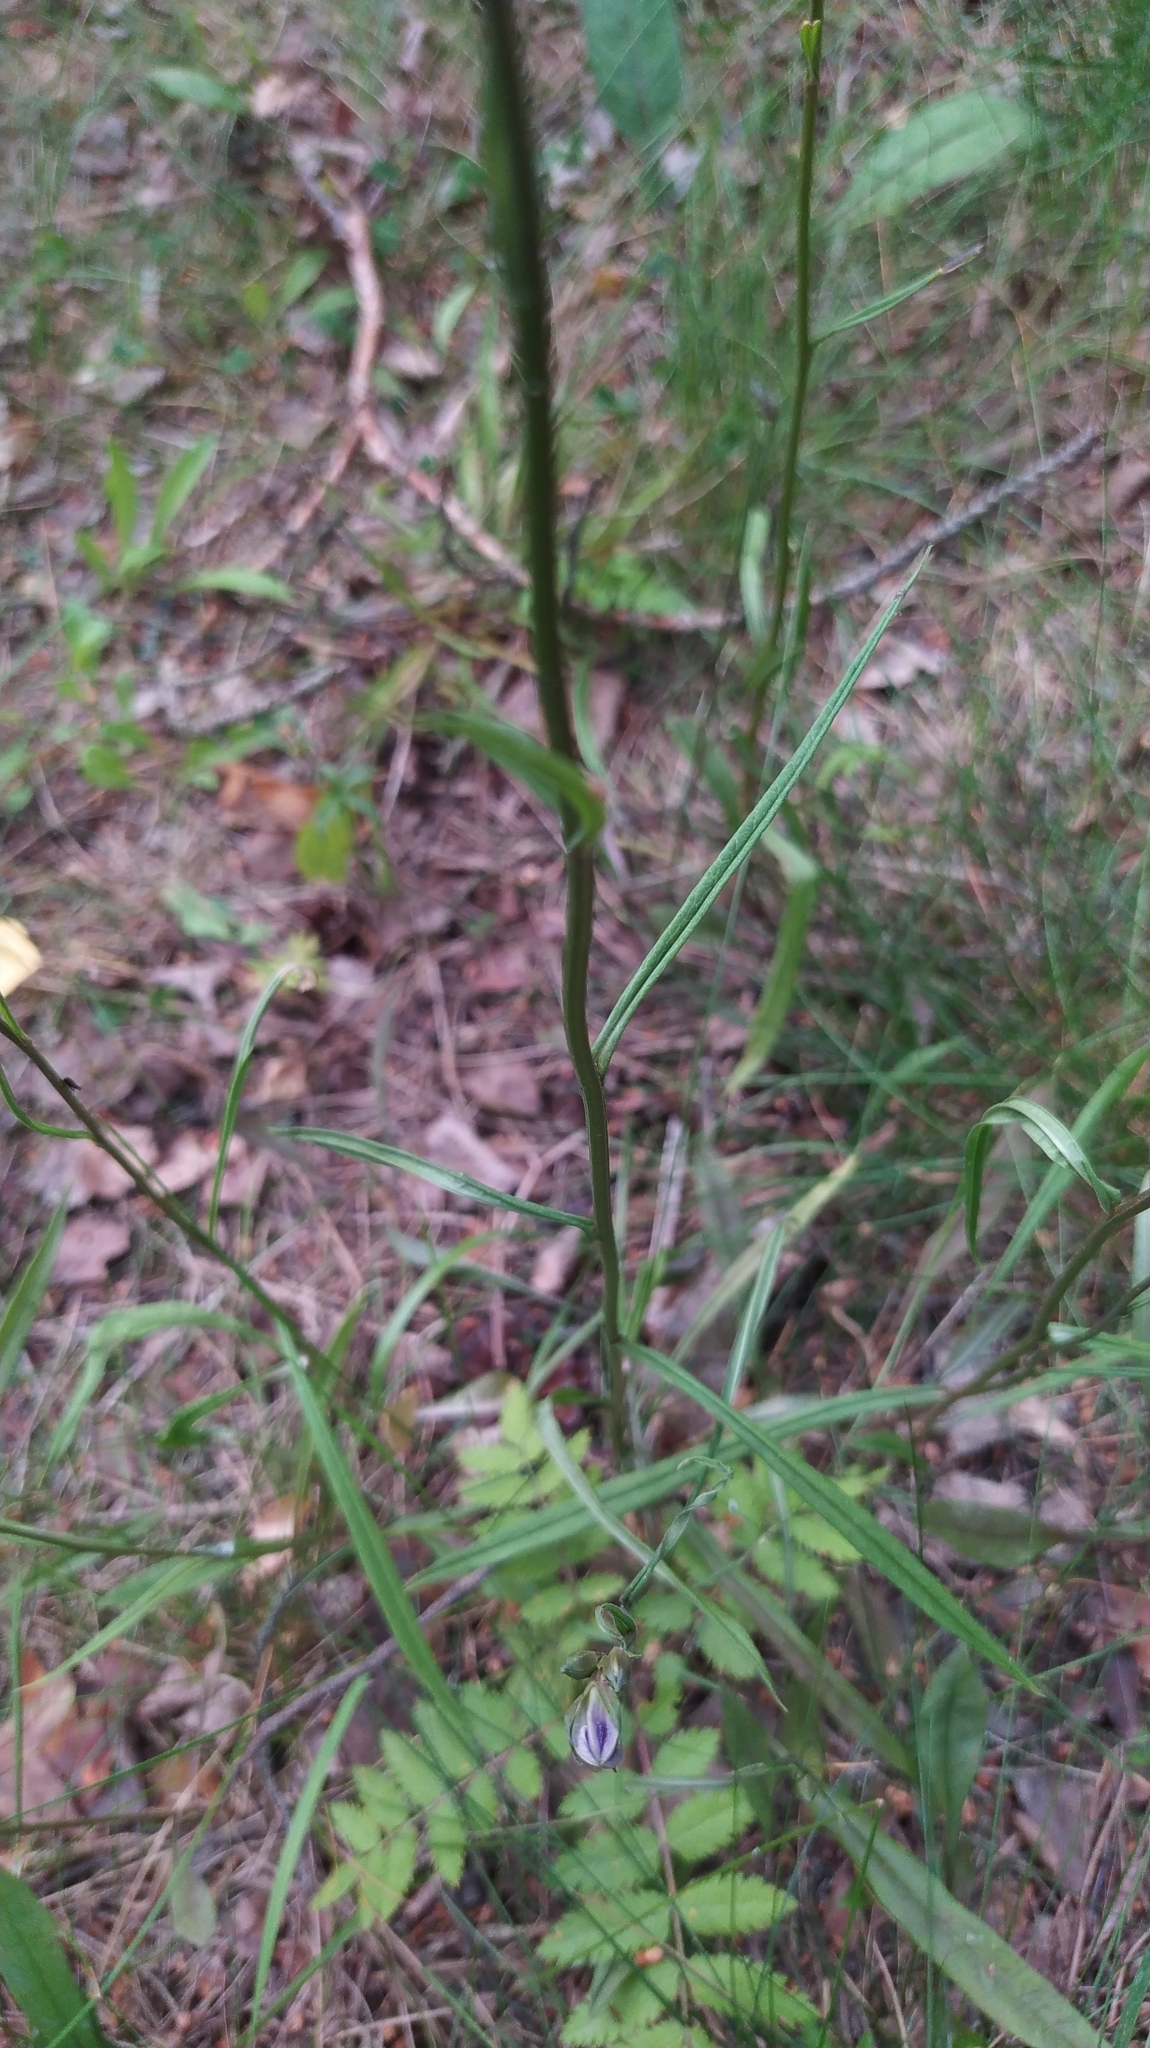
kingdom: Plantae
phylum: Tracheophyta
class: Magnoliopsida
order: Asterales
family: Campanulaceae
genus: Campanula
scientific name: Campanula persicifolia
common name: Peach-leaved bellflower
